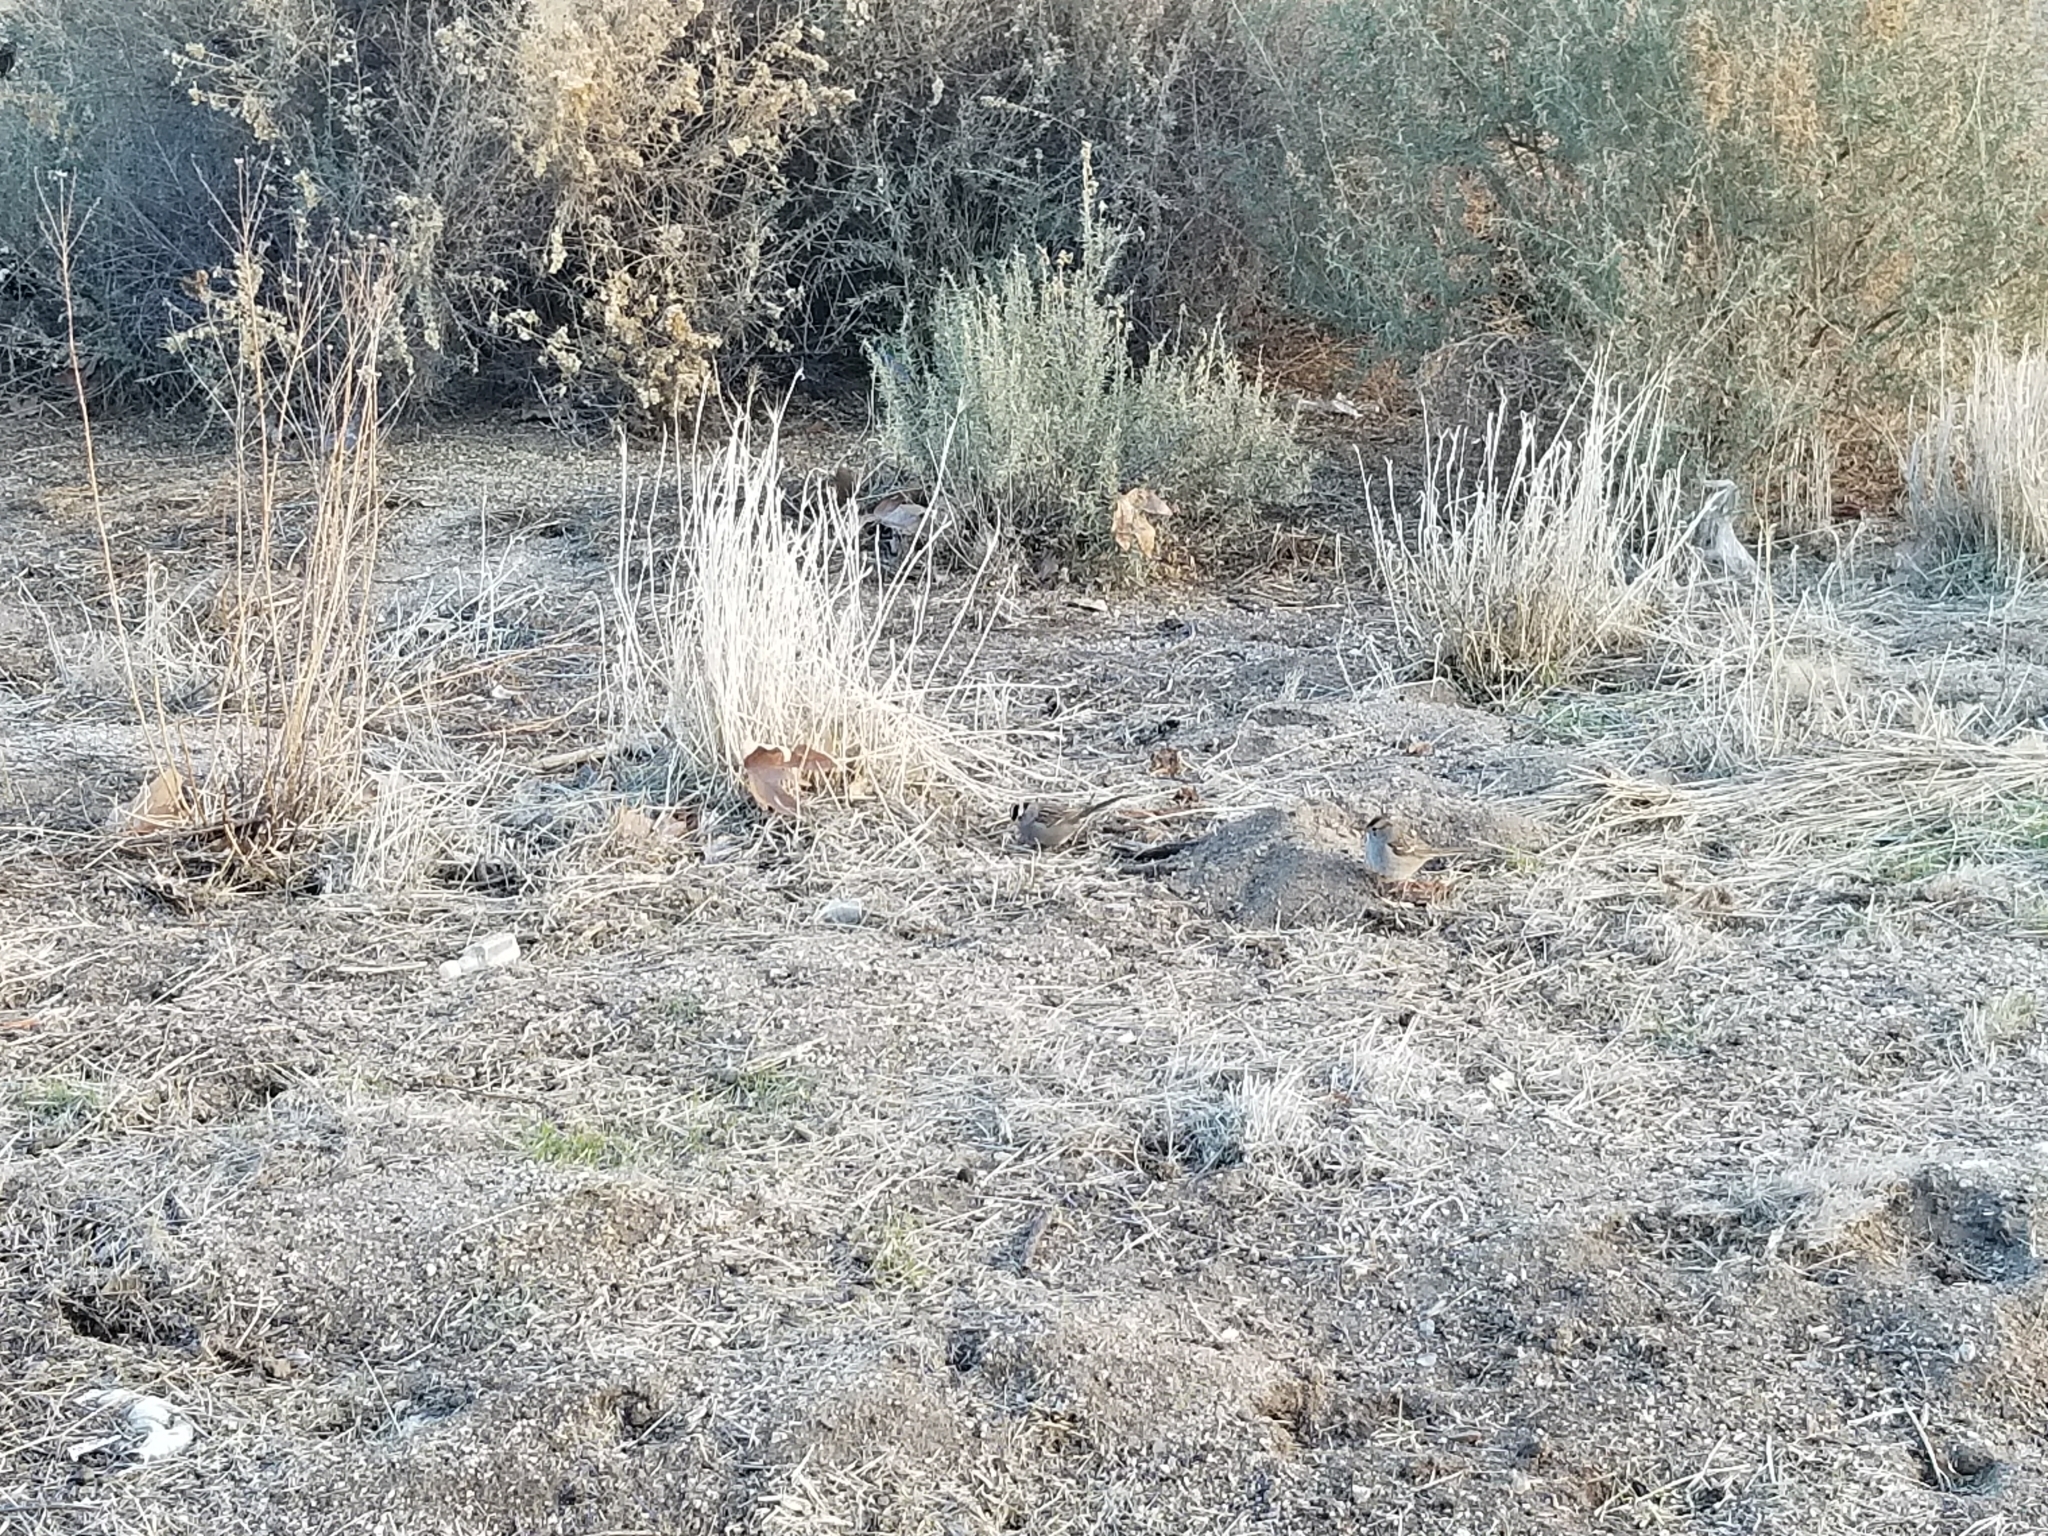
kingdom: Animalia
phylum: Chordata
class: Aves
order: Passeriformes
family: Passerellidae
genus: Zonotrichia
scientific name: Zonotrichia leucophrys
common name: White-crowned sparrow
